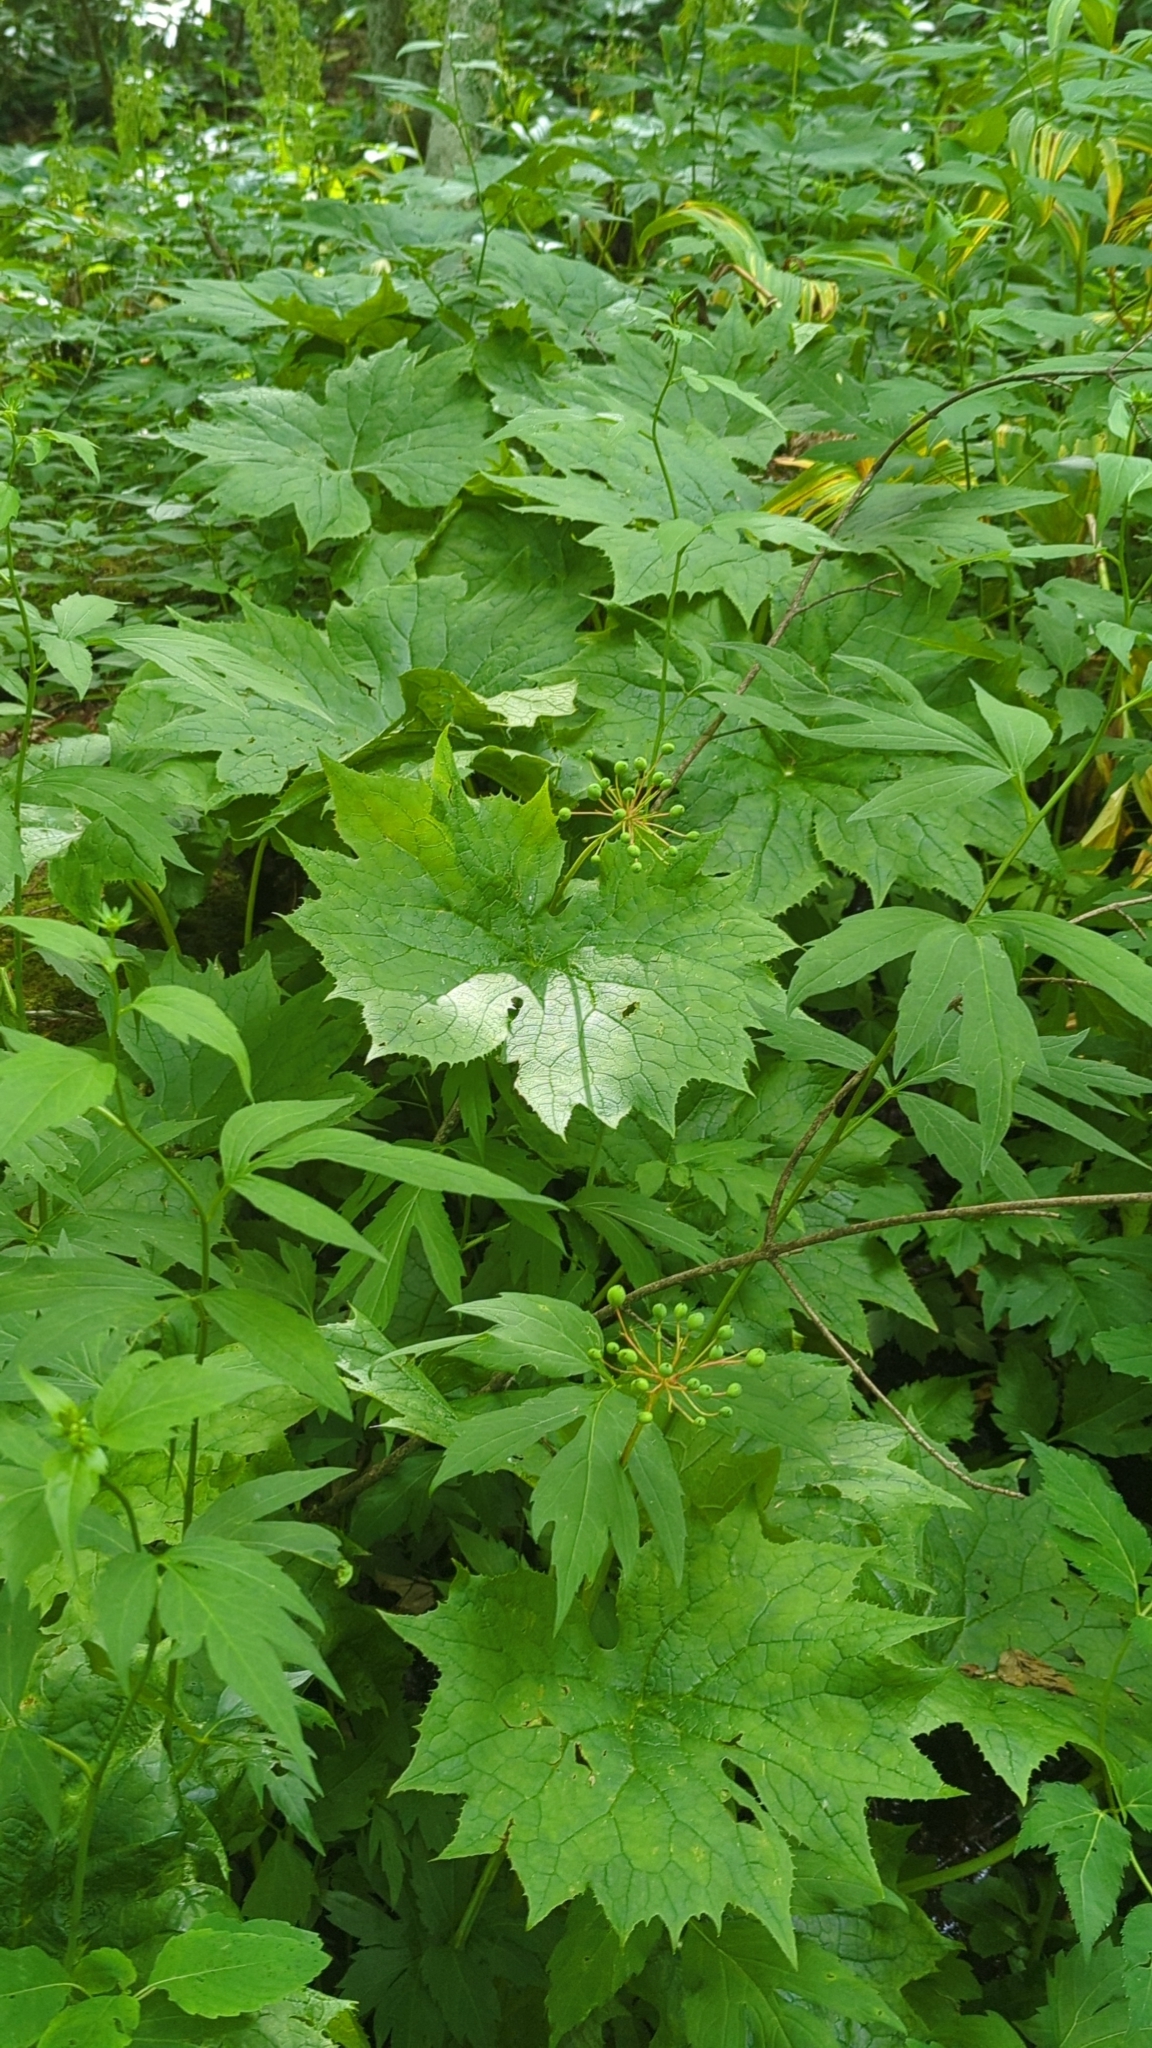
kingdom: Plantae
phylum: Tracheophyta
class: Magnoliopsida
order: Ranunculales
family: Berberidaceae
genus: Diphylleia
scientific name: Diphylleia cymosa
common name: Umbrella-leaf
